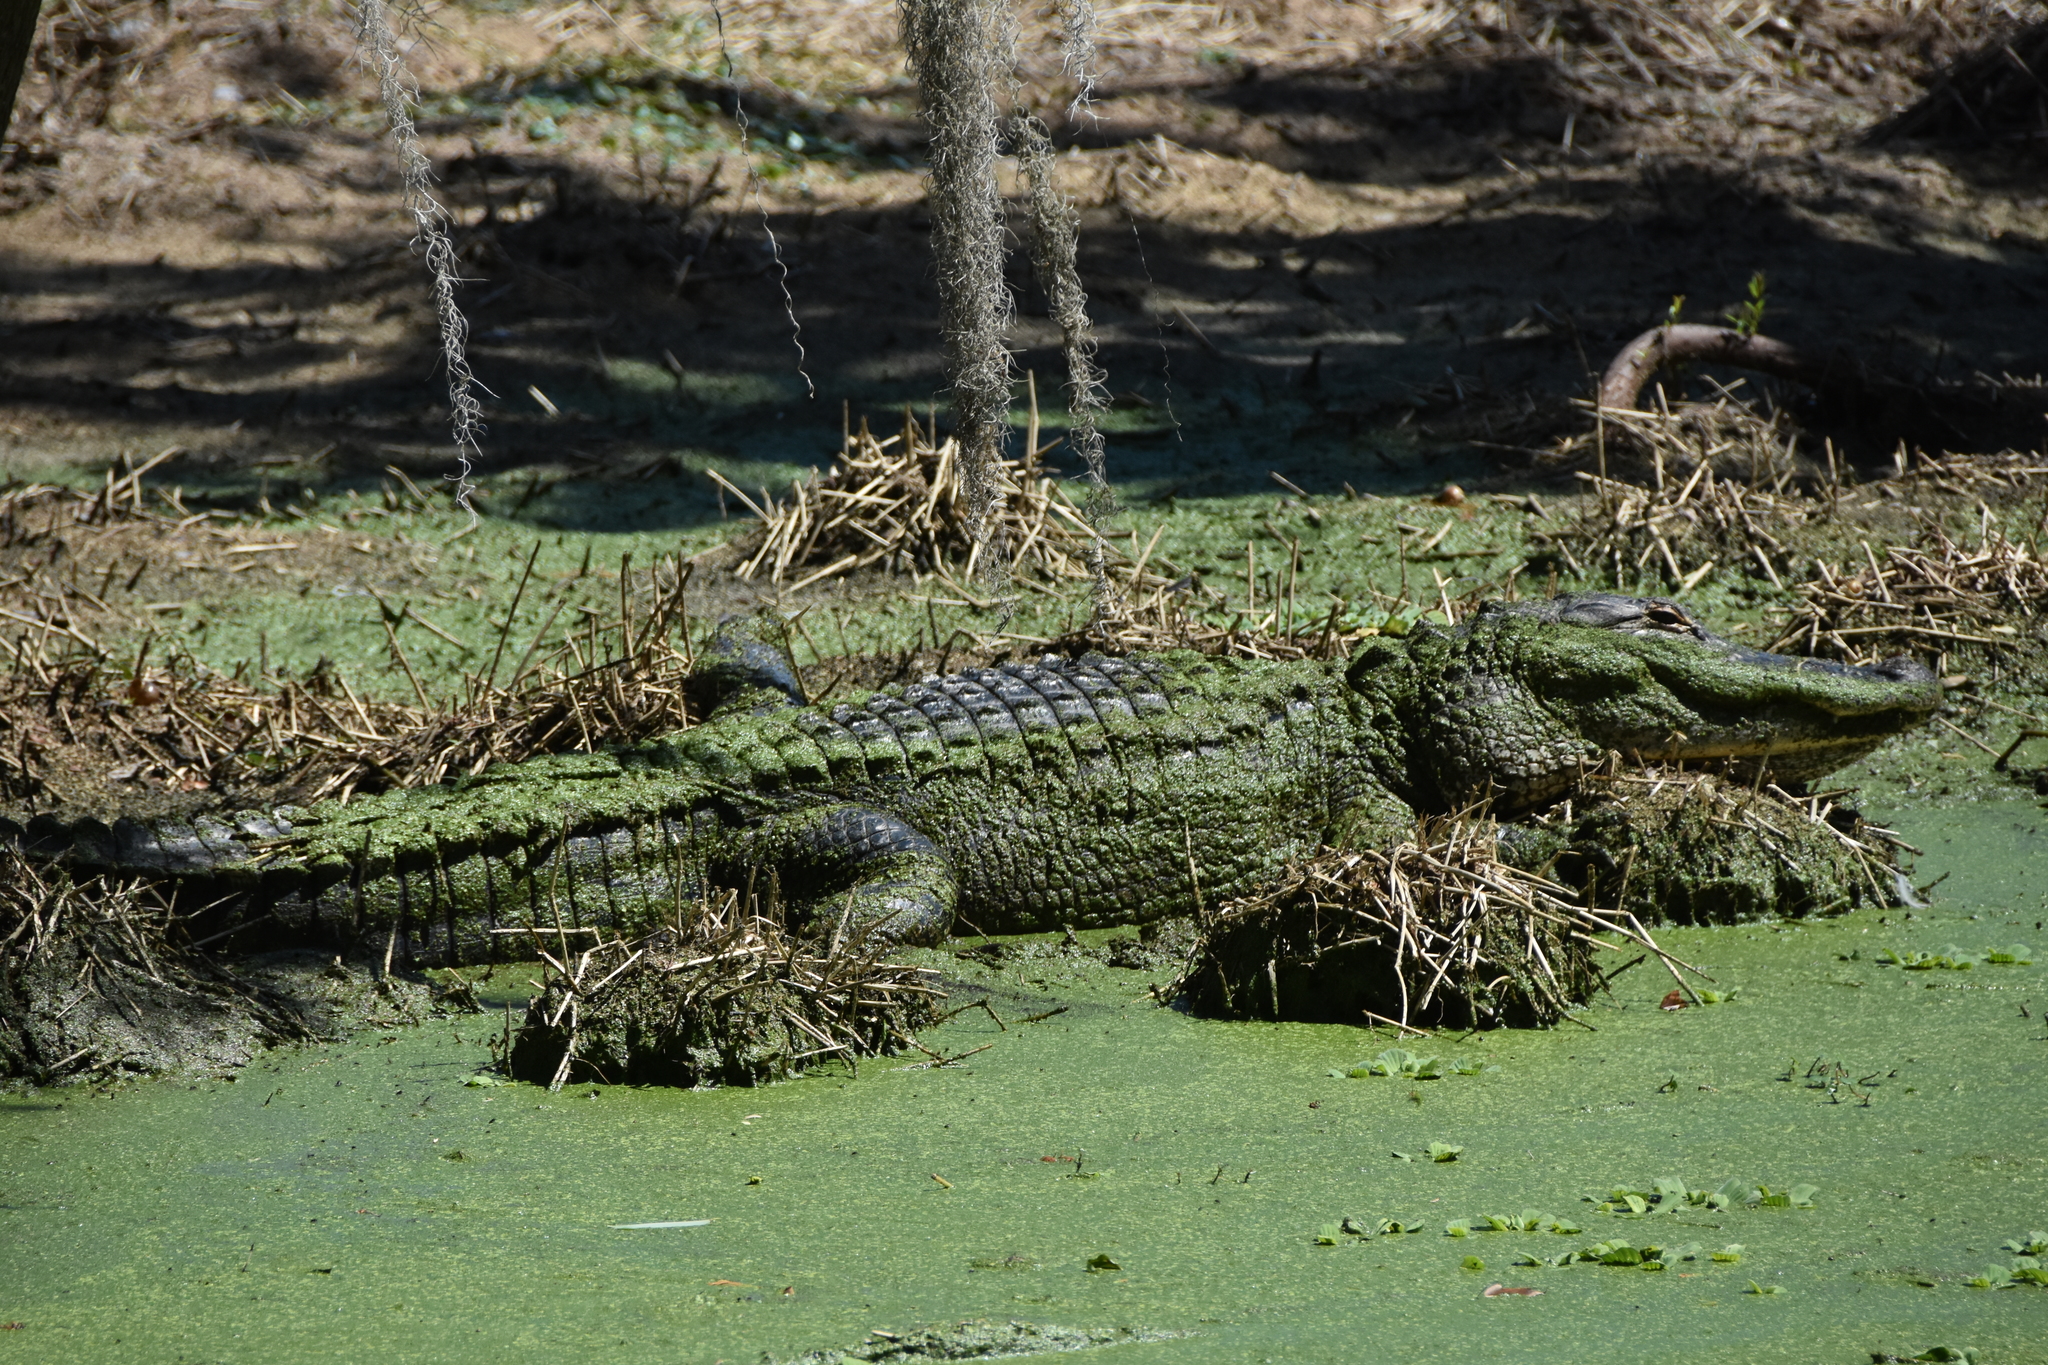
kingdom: Animalia
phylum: Chordata
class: Crocodylia
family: Alligatoridae
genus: Alligator
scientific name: Alligator mississippiensis
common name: American alligator
